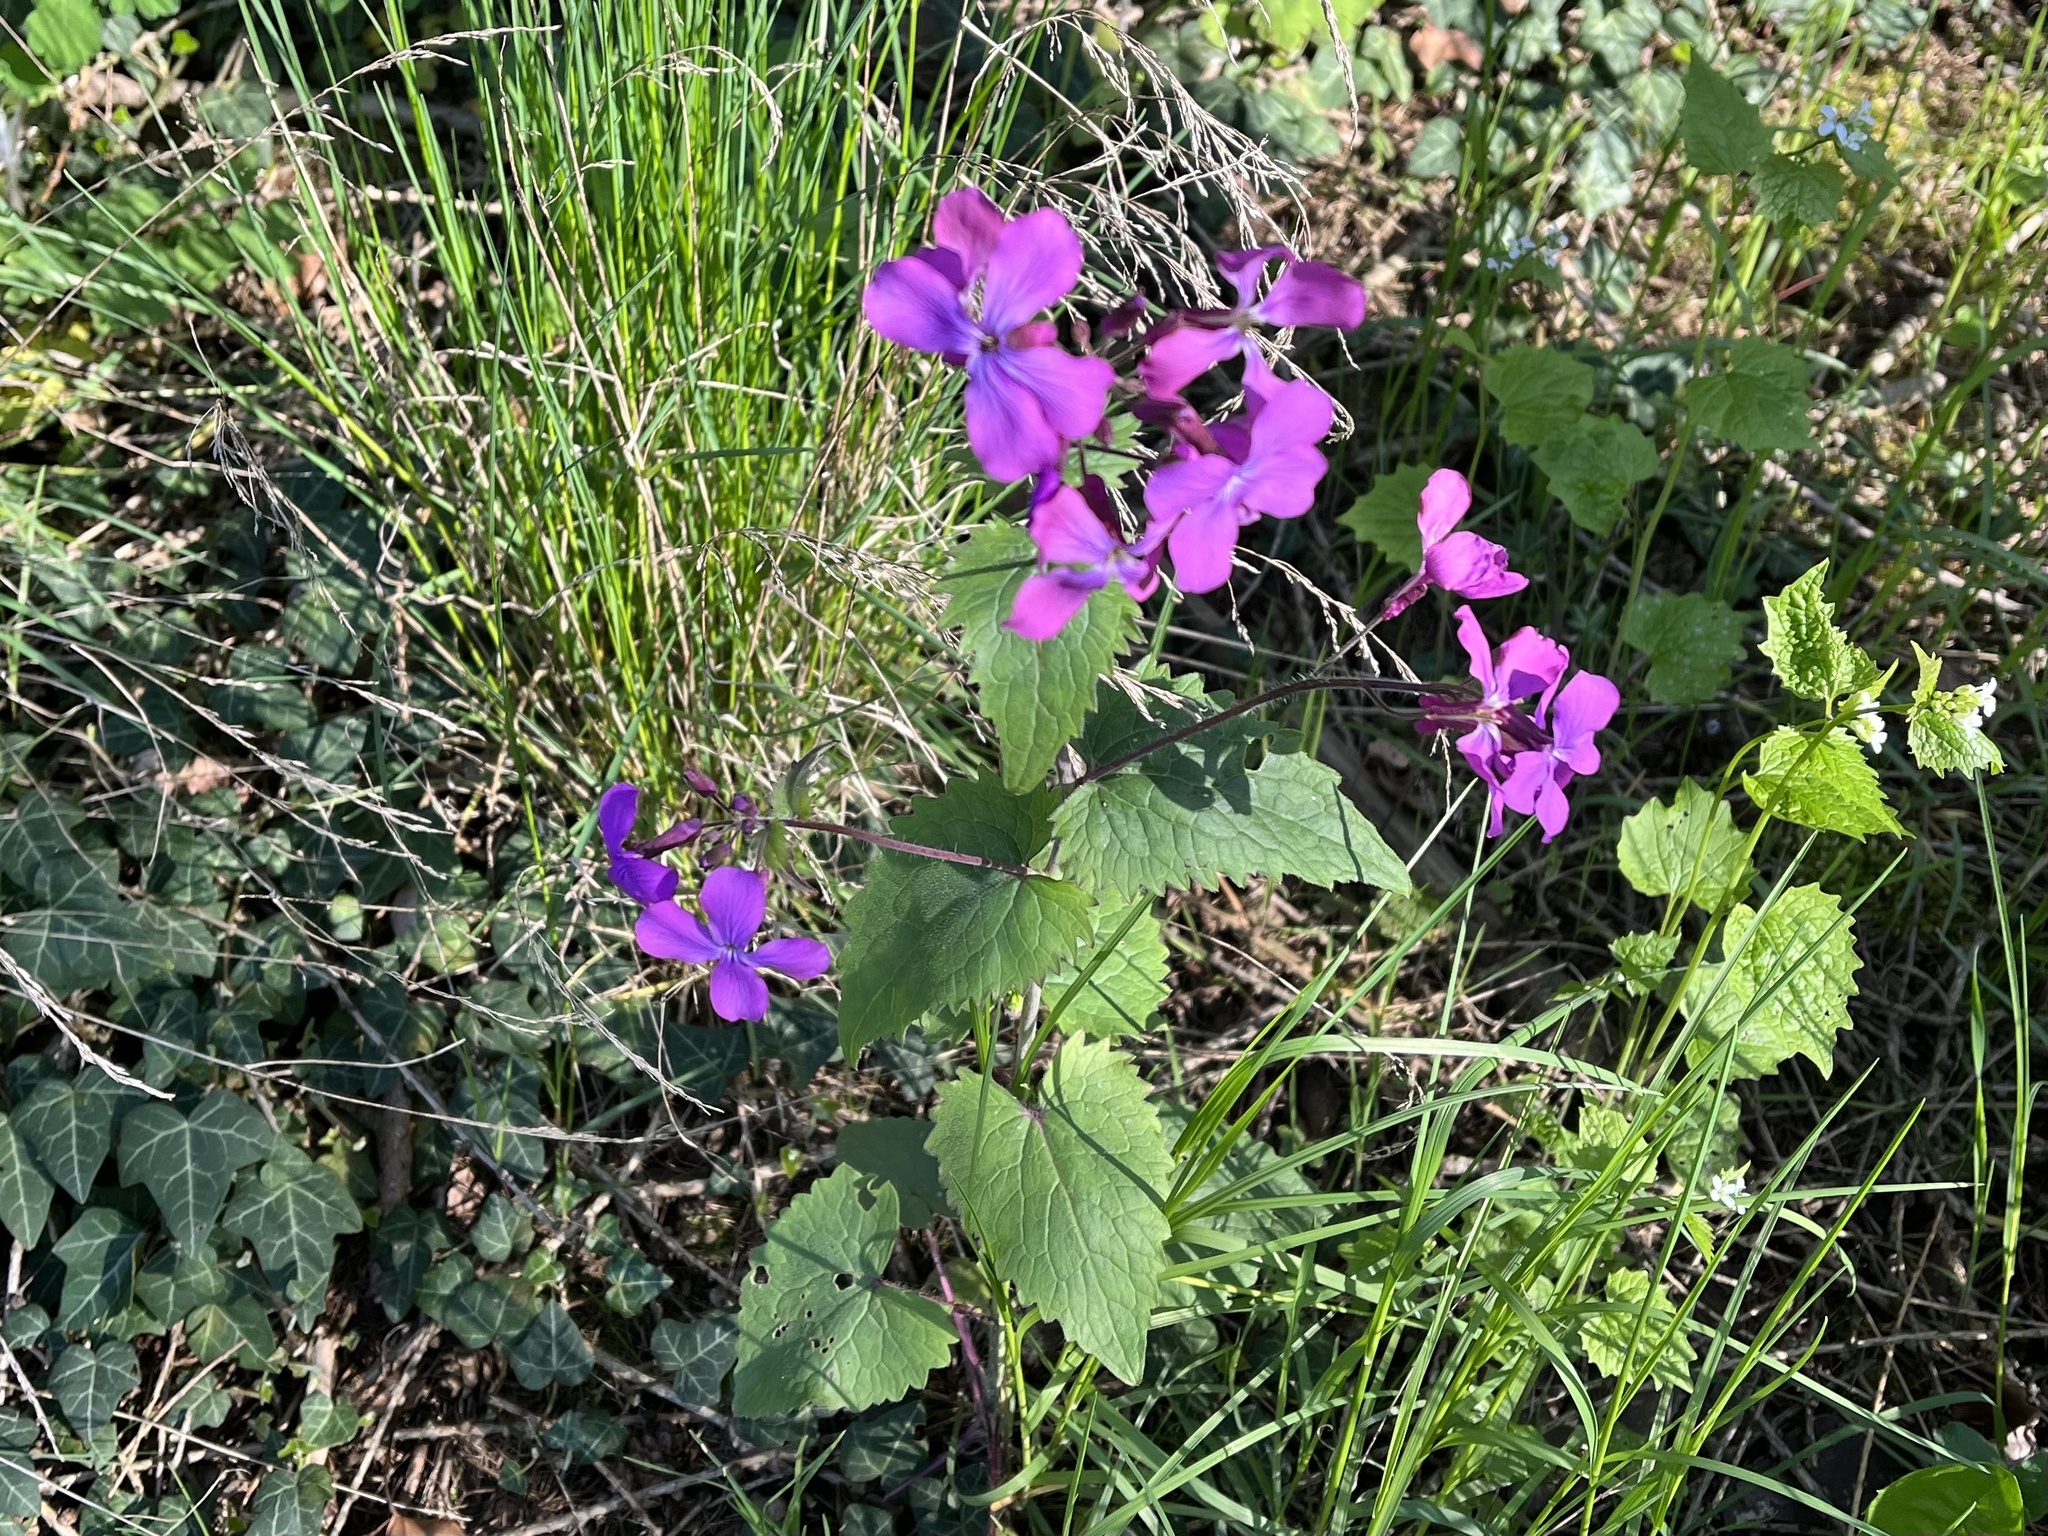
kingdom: Plantae
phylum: Tracheophyta
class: Magnoliopsida
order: Brassicales
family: Brassicaceae
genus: Lunaria
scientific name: Lunaria annua
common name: Honesty
